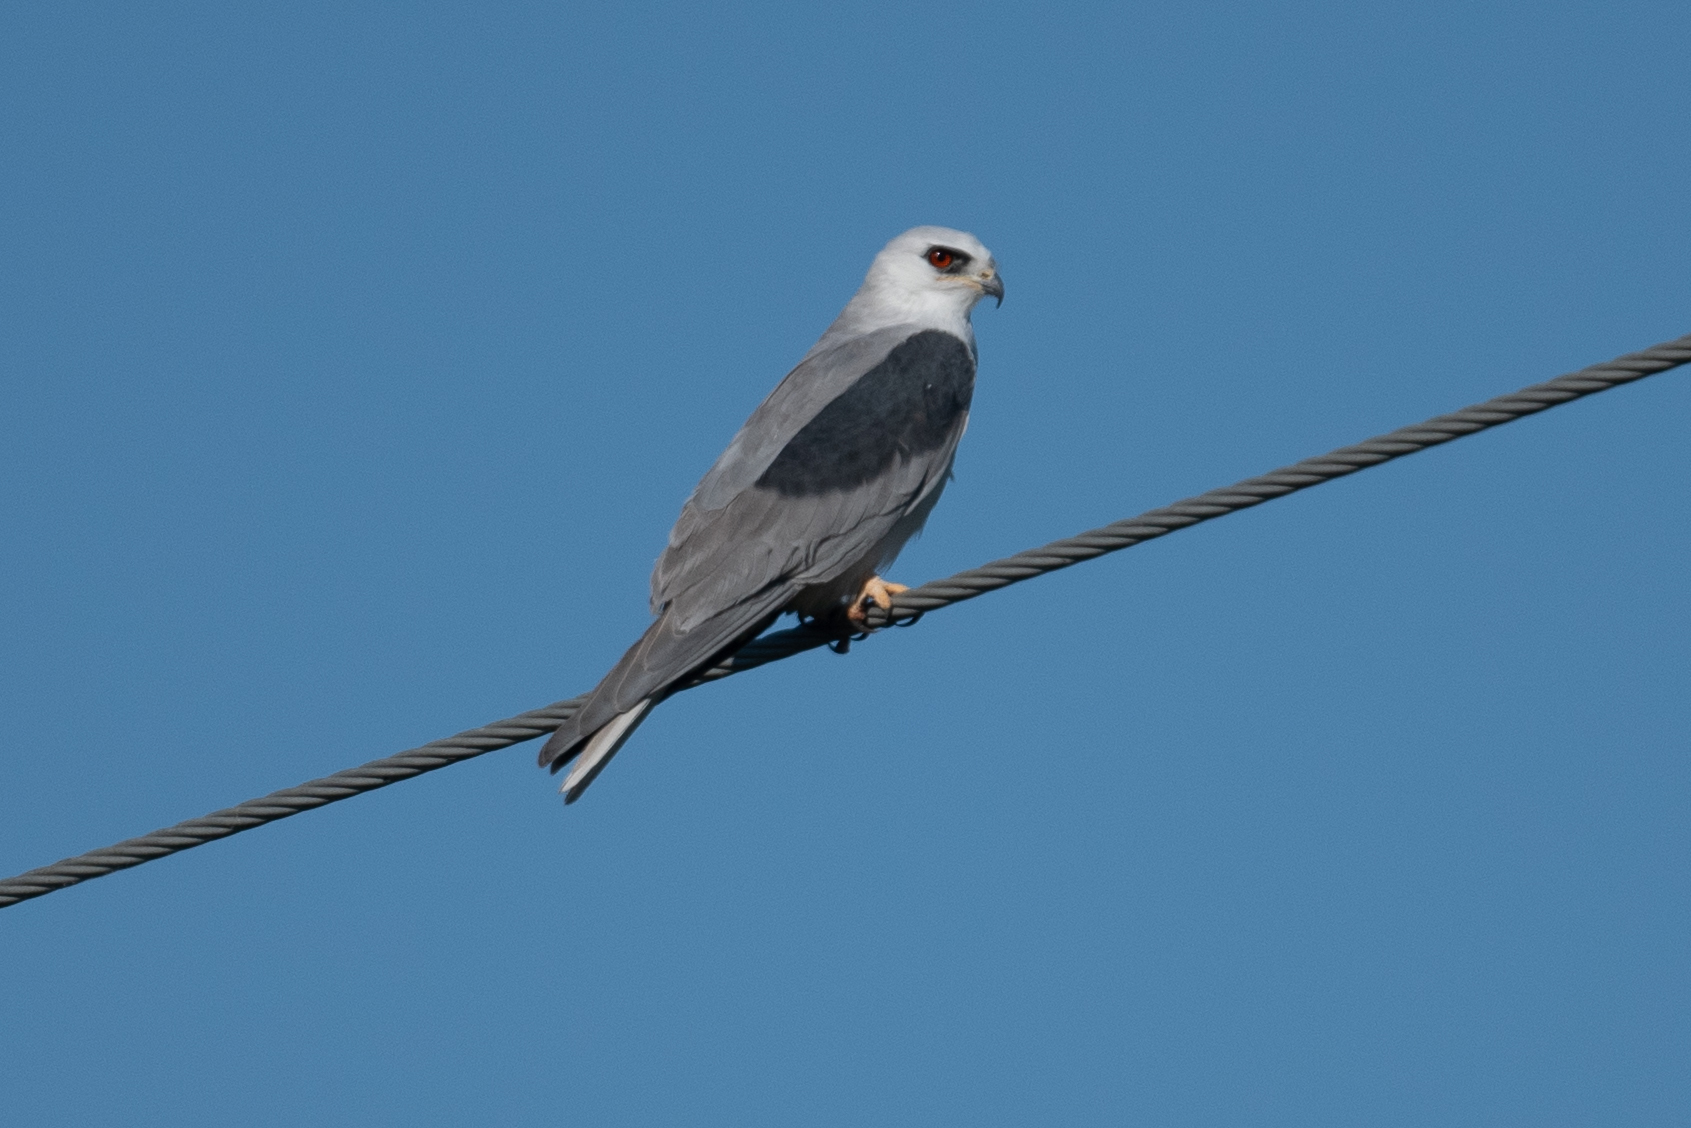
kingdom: Animalia
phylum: Chordata
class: Aves
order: Accipitriformes
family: Accipitridae
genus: Elanus
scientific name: Elanus leucurus
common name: White-tailed kite
